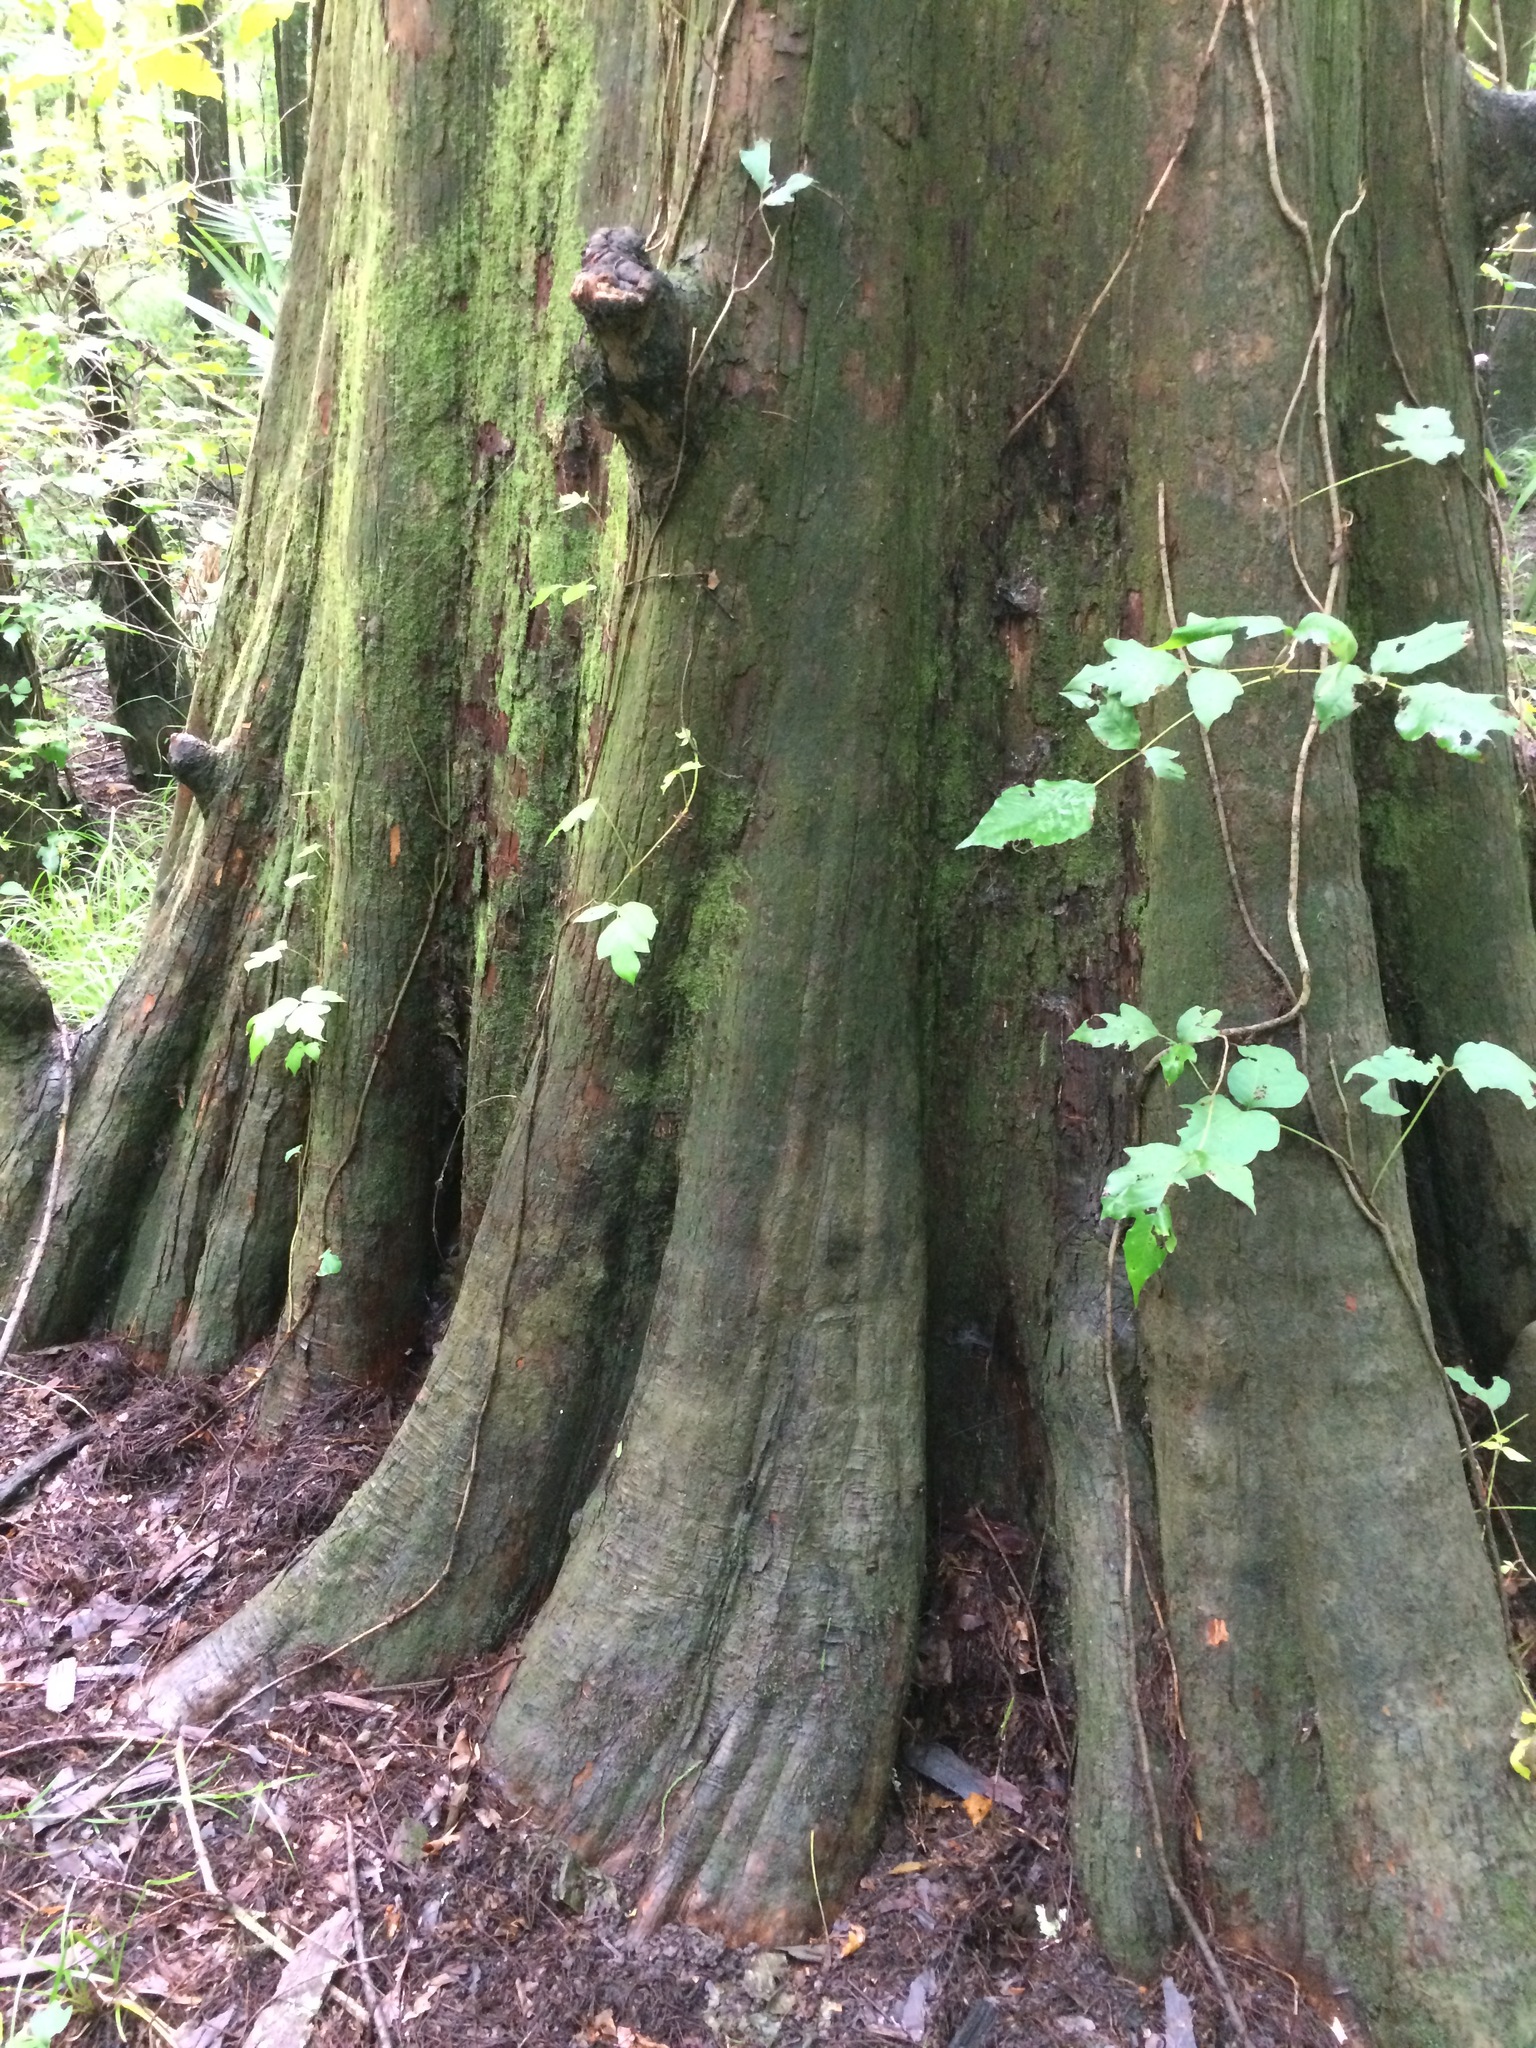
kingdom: Plantae
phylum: Tracheophyta
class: Pinopsida
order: Pinales
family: Cupressaceae
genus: Taxodium
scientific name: Taxodium distichum
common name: Bald cypress
